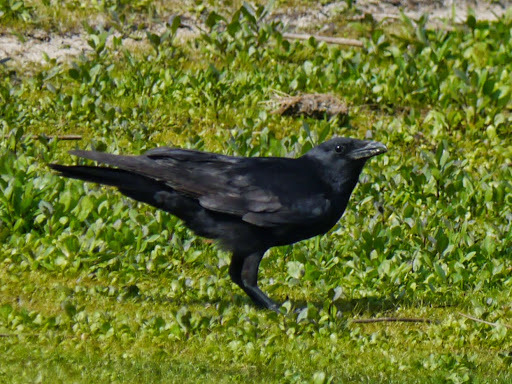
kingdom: Animalia
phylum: Chordata
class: Aves
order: Passeriformes
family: Corvidae
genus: Corvus
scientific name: Corvus ossifragus
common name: Fish crow
